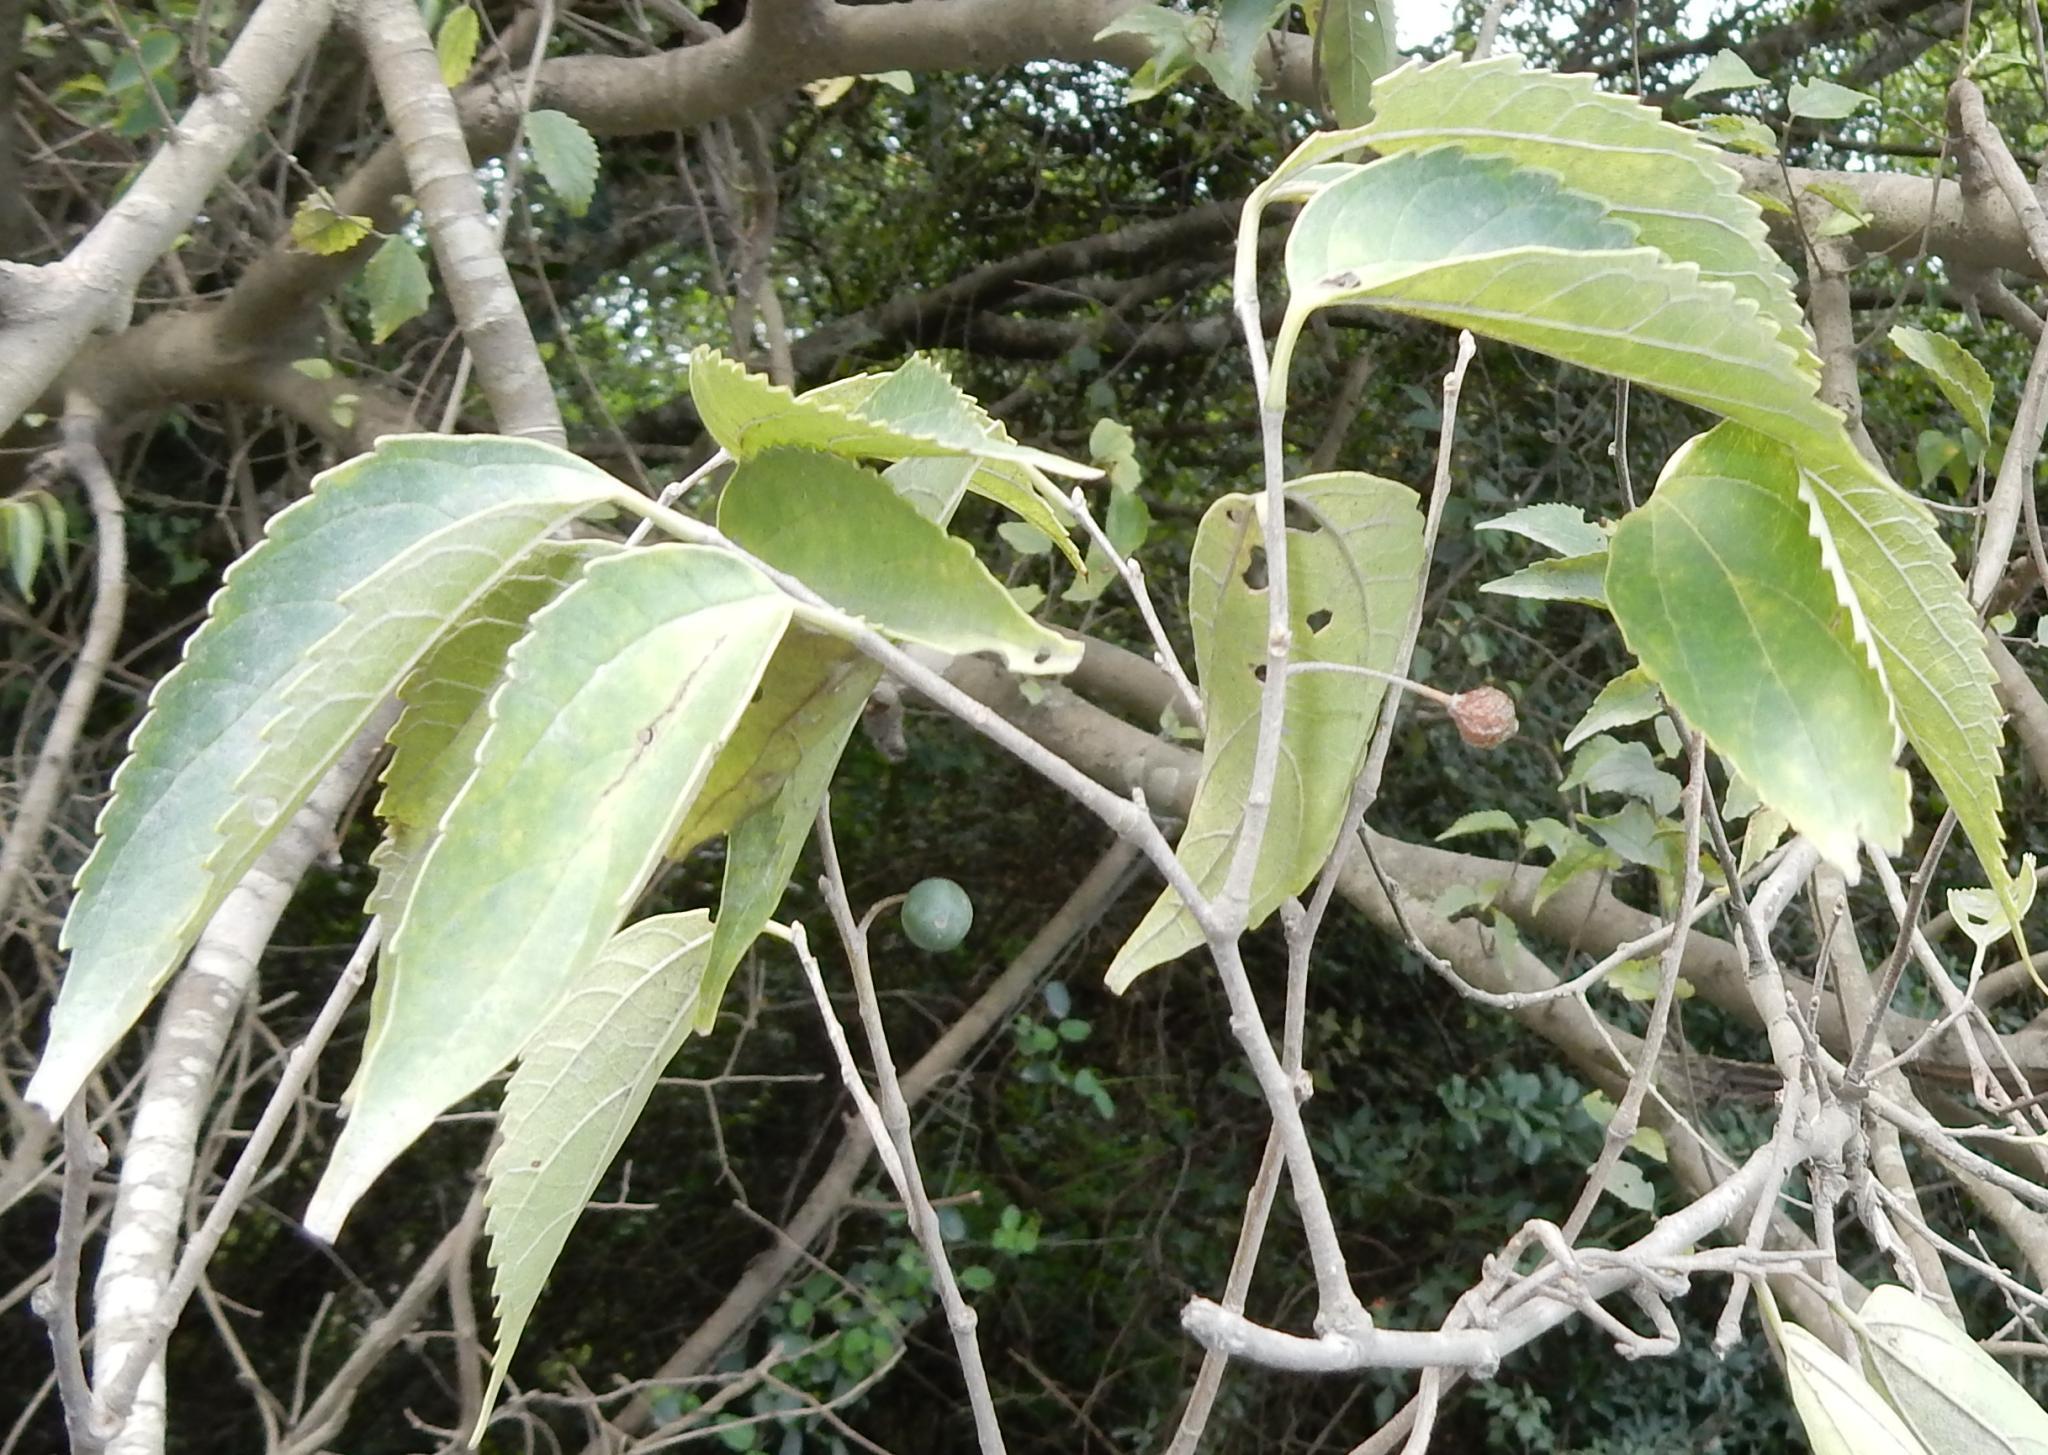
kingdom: Plantae
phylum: Tracheophyta
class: Magnoliopsida
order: Rosales
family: Cannabaceae
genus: Celtis
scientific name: Celtis africana
